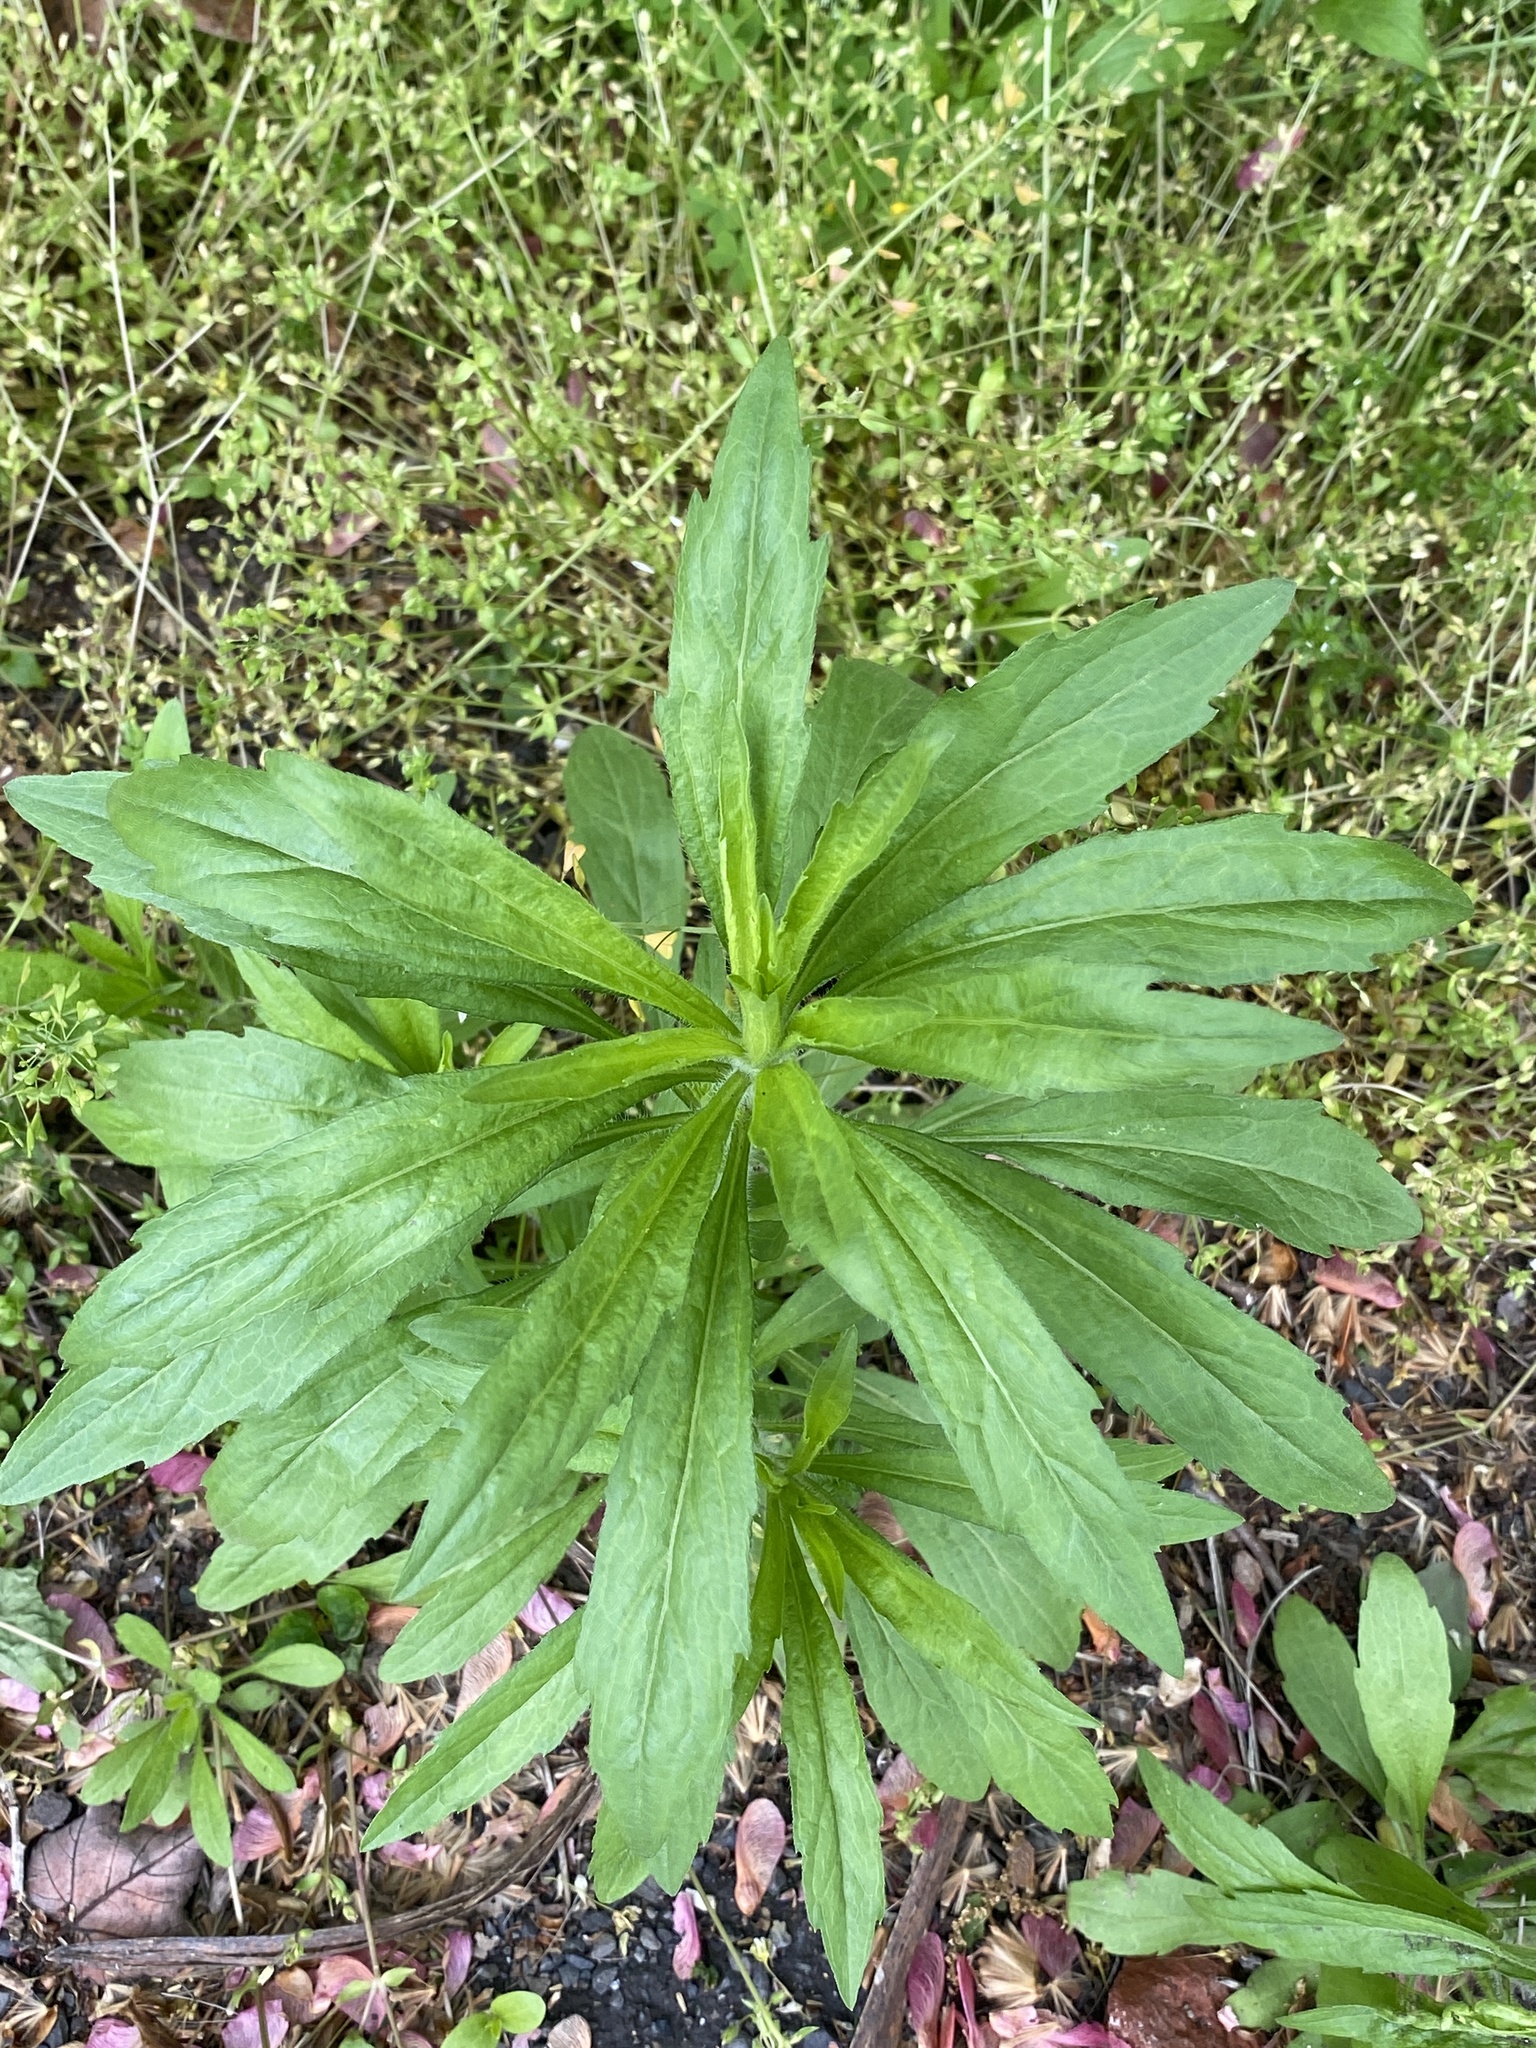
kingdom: Plantae
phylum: Tracheophyta
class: Magnoliopsida
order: Asterales
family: Asteraceae
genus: Erigeron
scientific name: Erigeron canadensis
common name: Canadian fleabane
